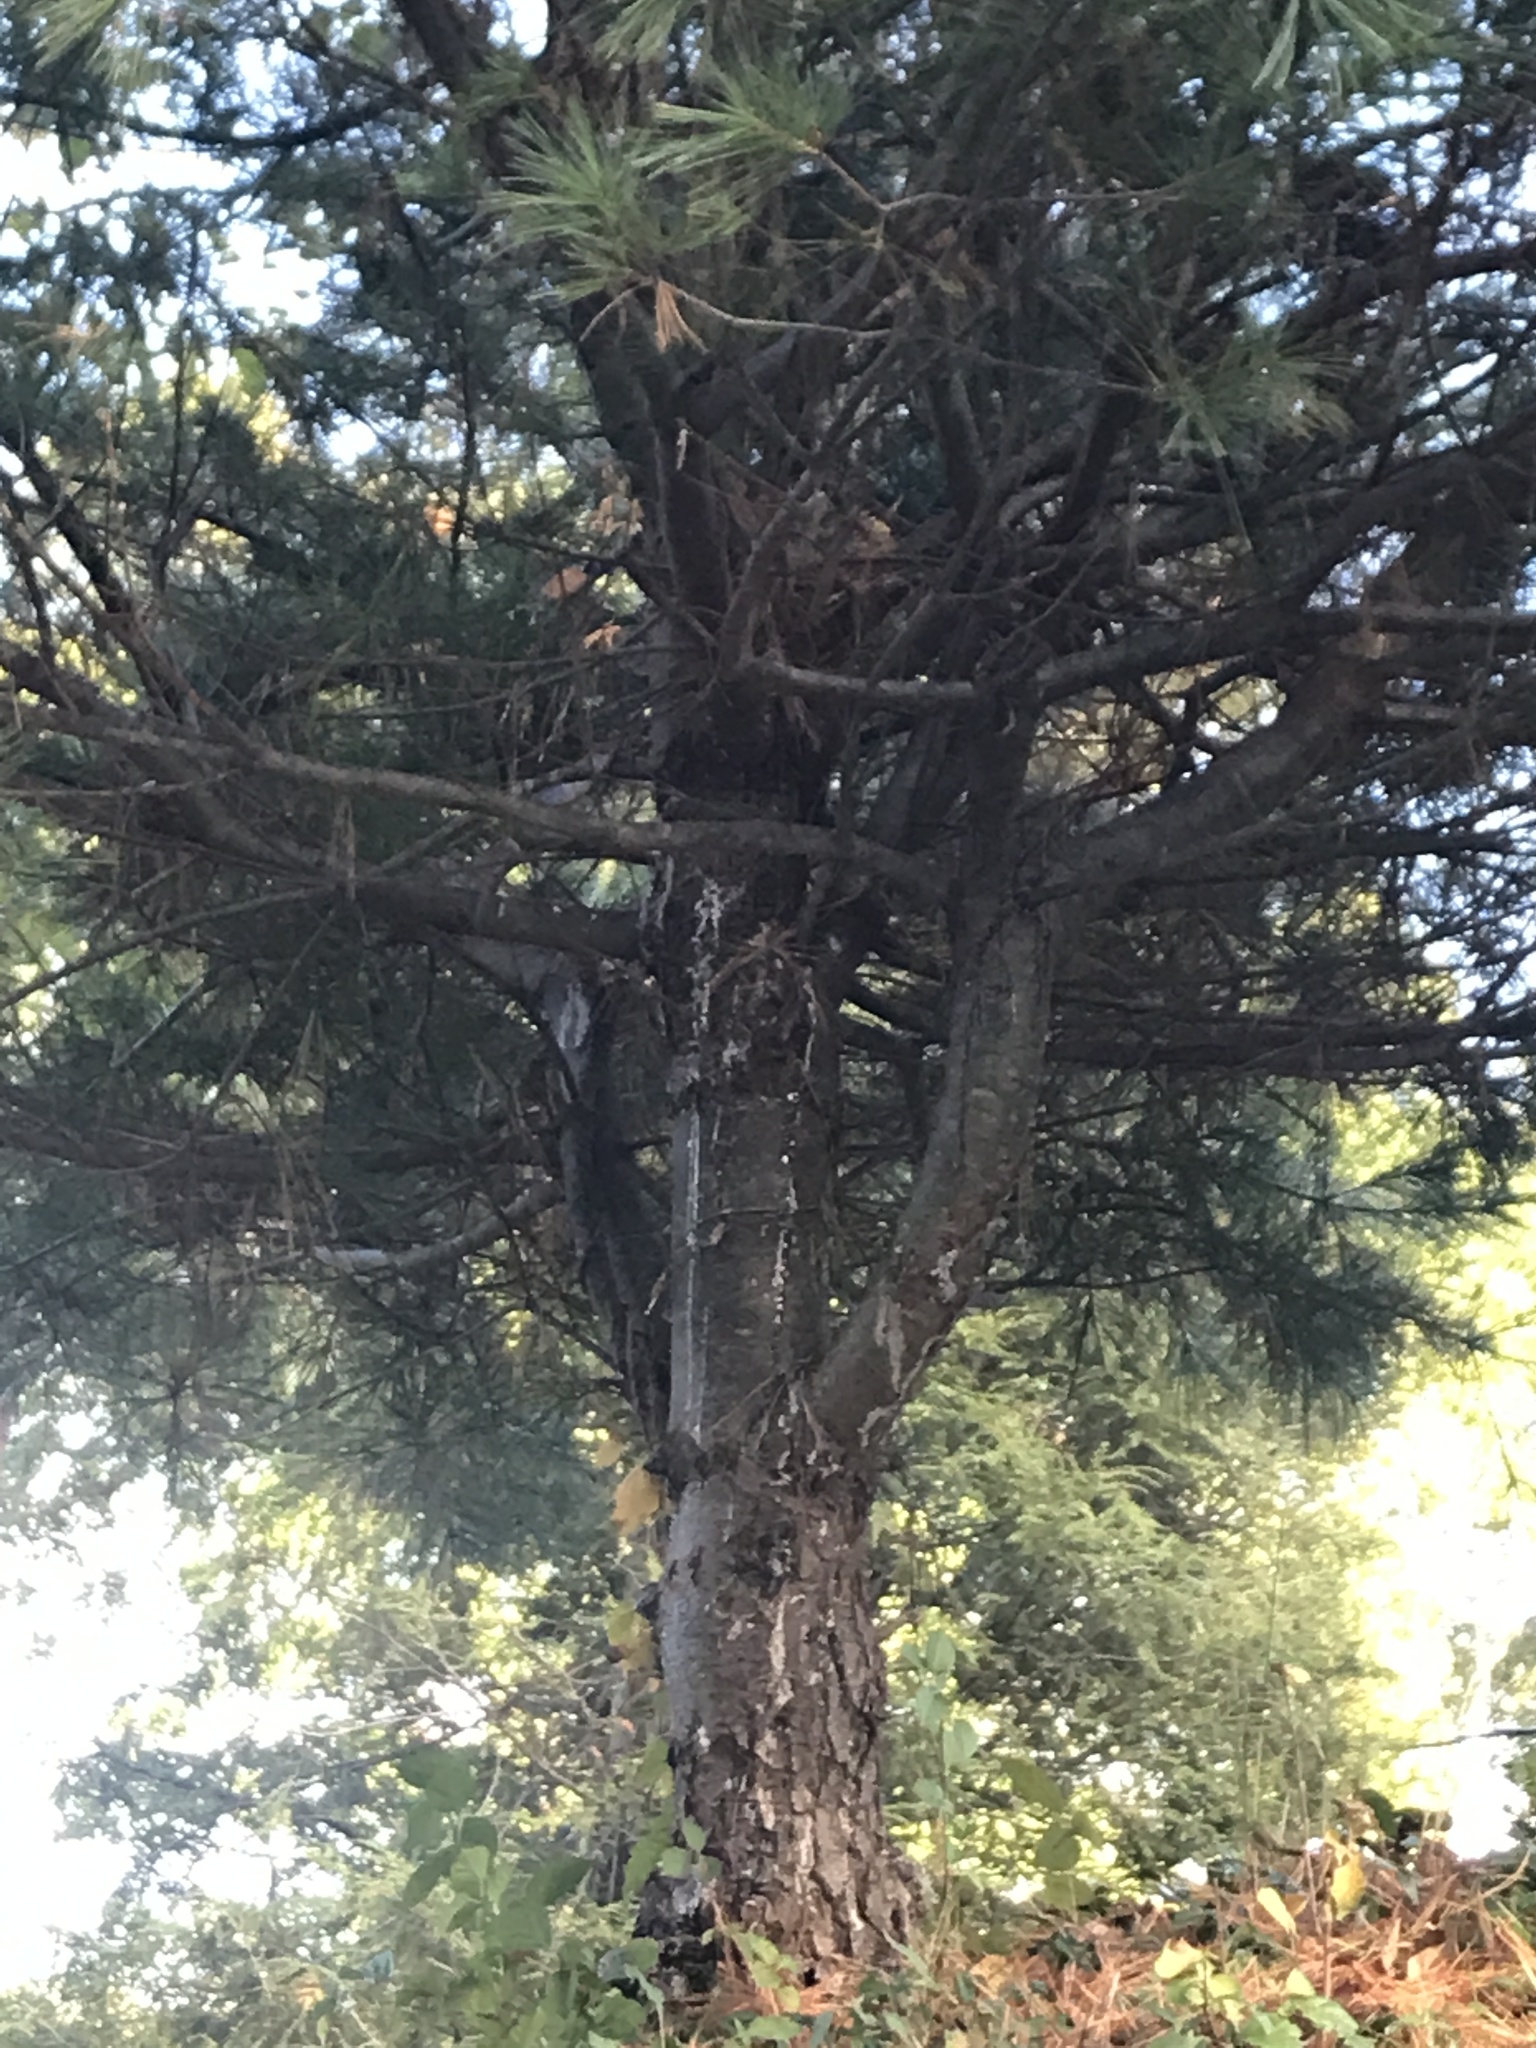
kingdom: Plantae
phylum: Tracheophyta
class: Pinopsida
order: Pinales
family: Pinaceae
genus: Pinus
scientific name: Pinus strobus
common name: Weymouth pine
